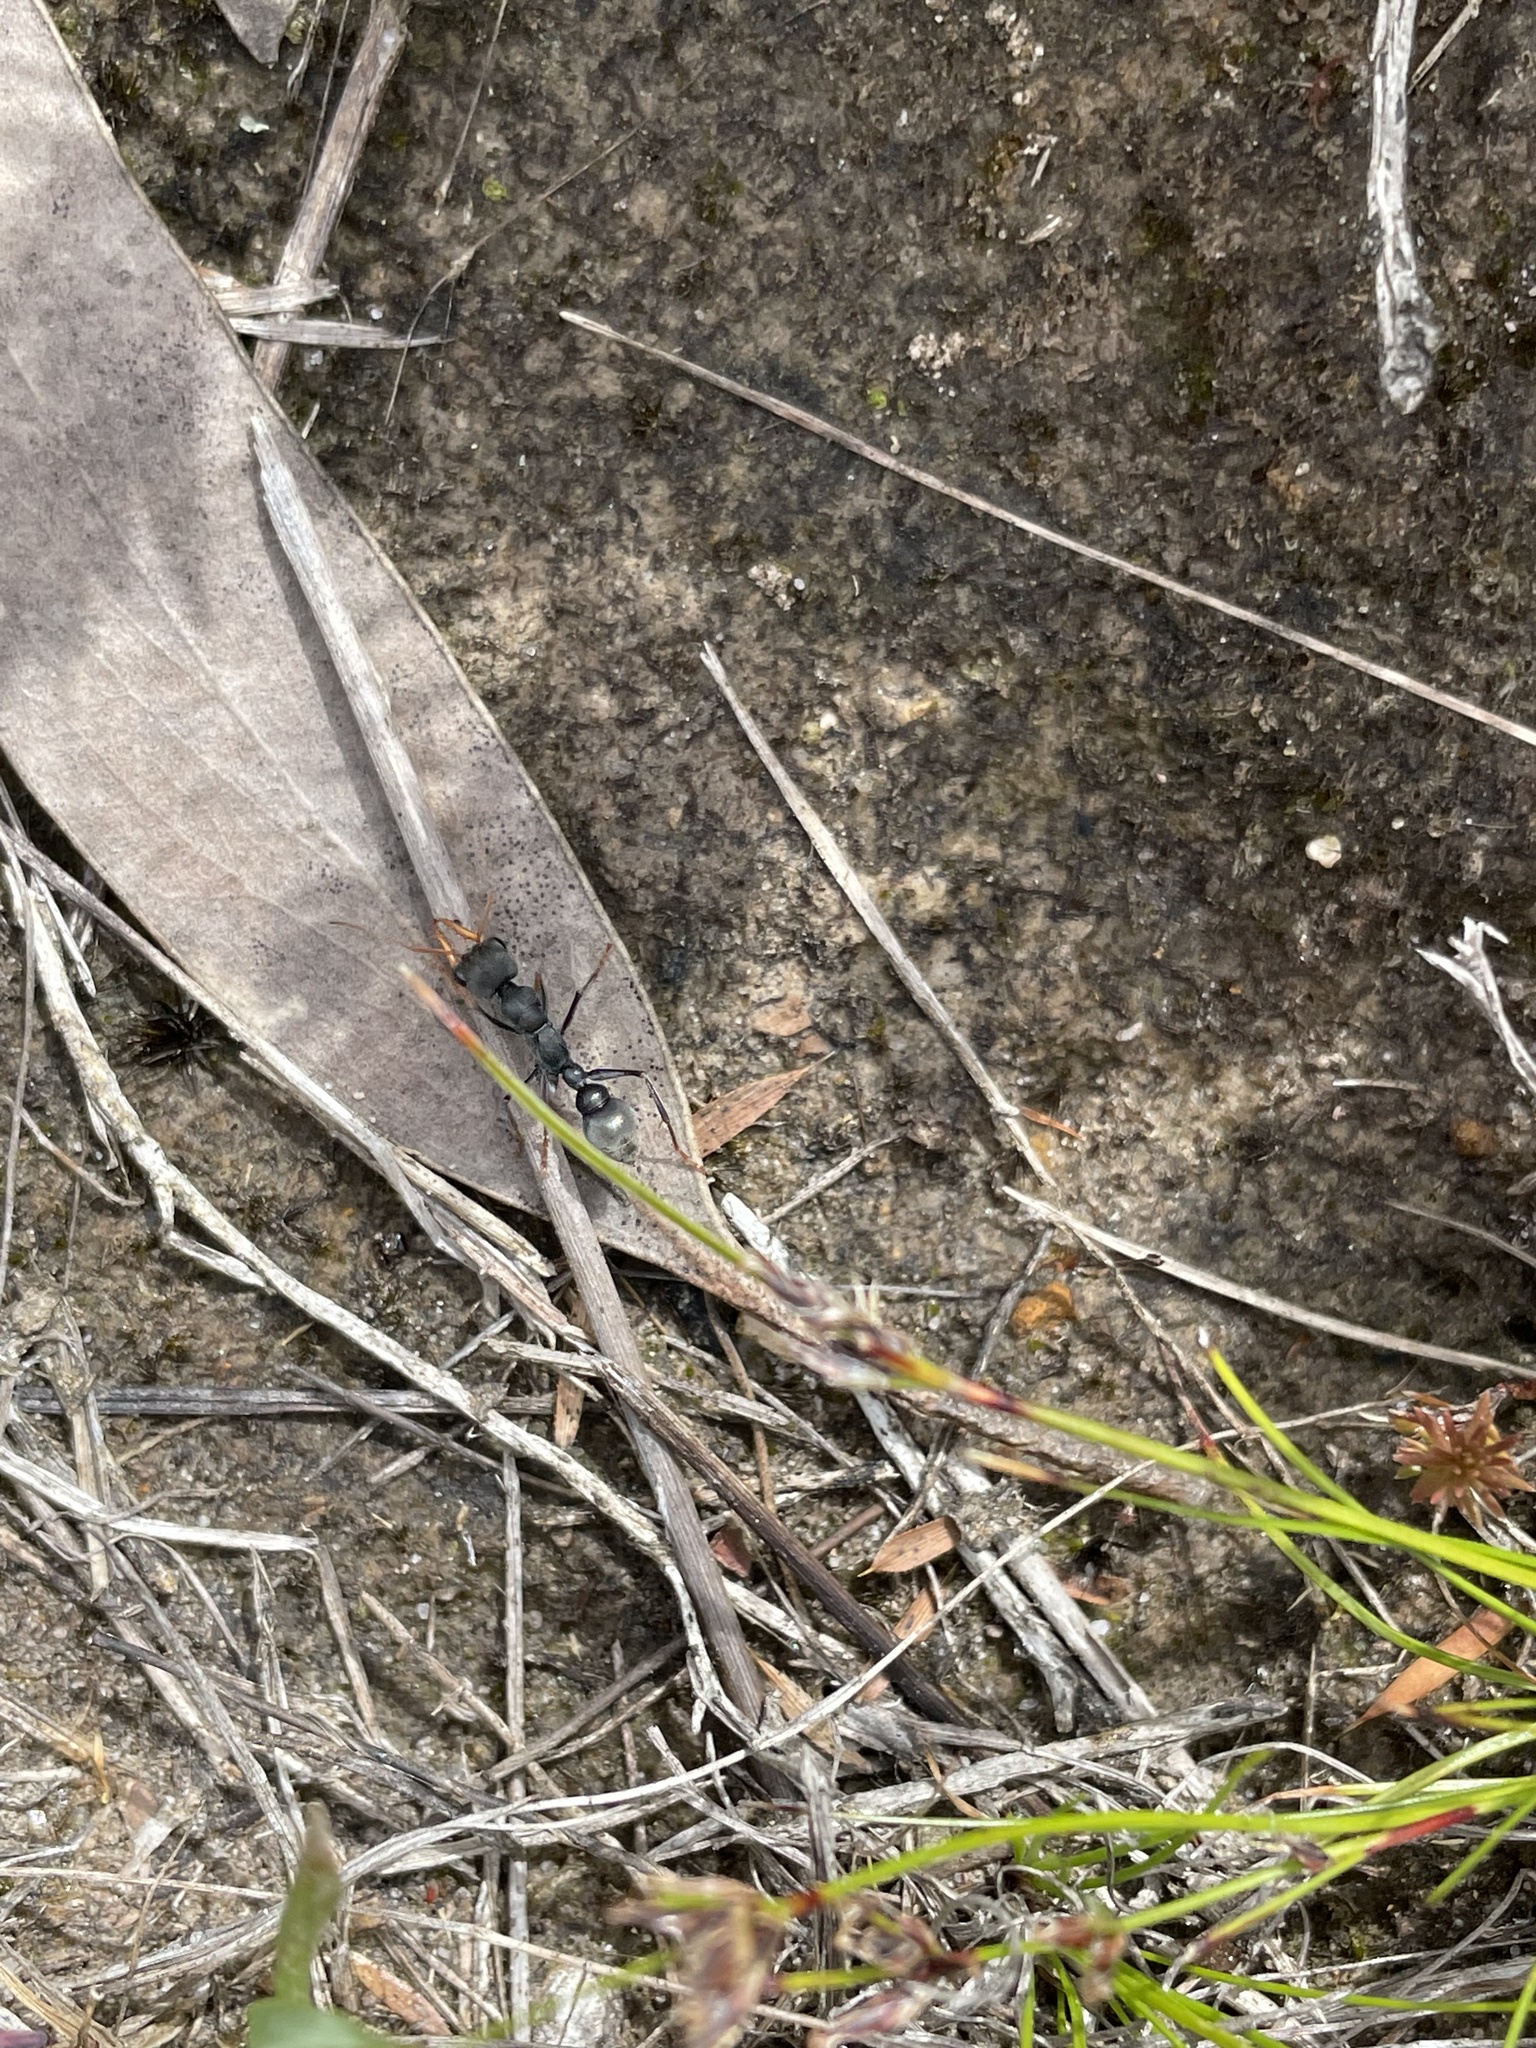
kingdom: Animalia
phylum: Arthropoda
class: Insecta
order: Hymenoptera
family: Formicidae
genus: Myrmecia
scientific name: Myrmecia pilosula
